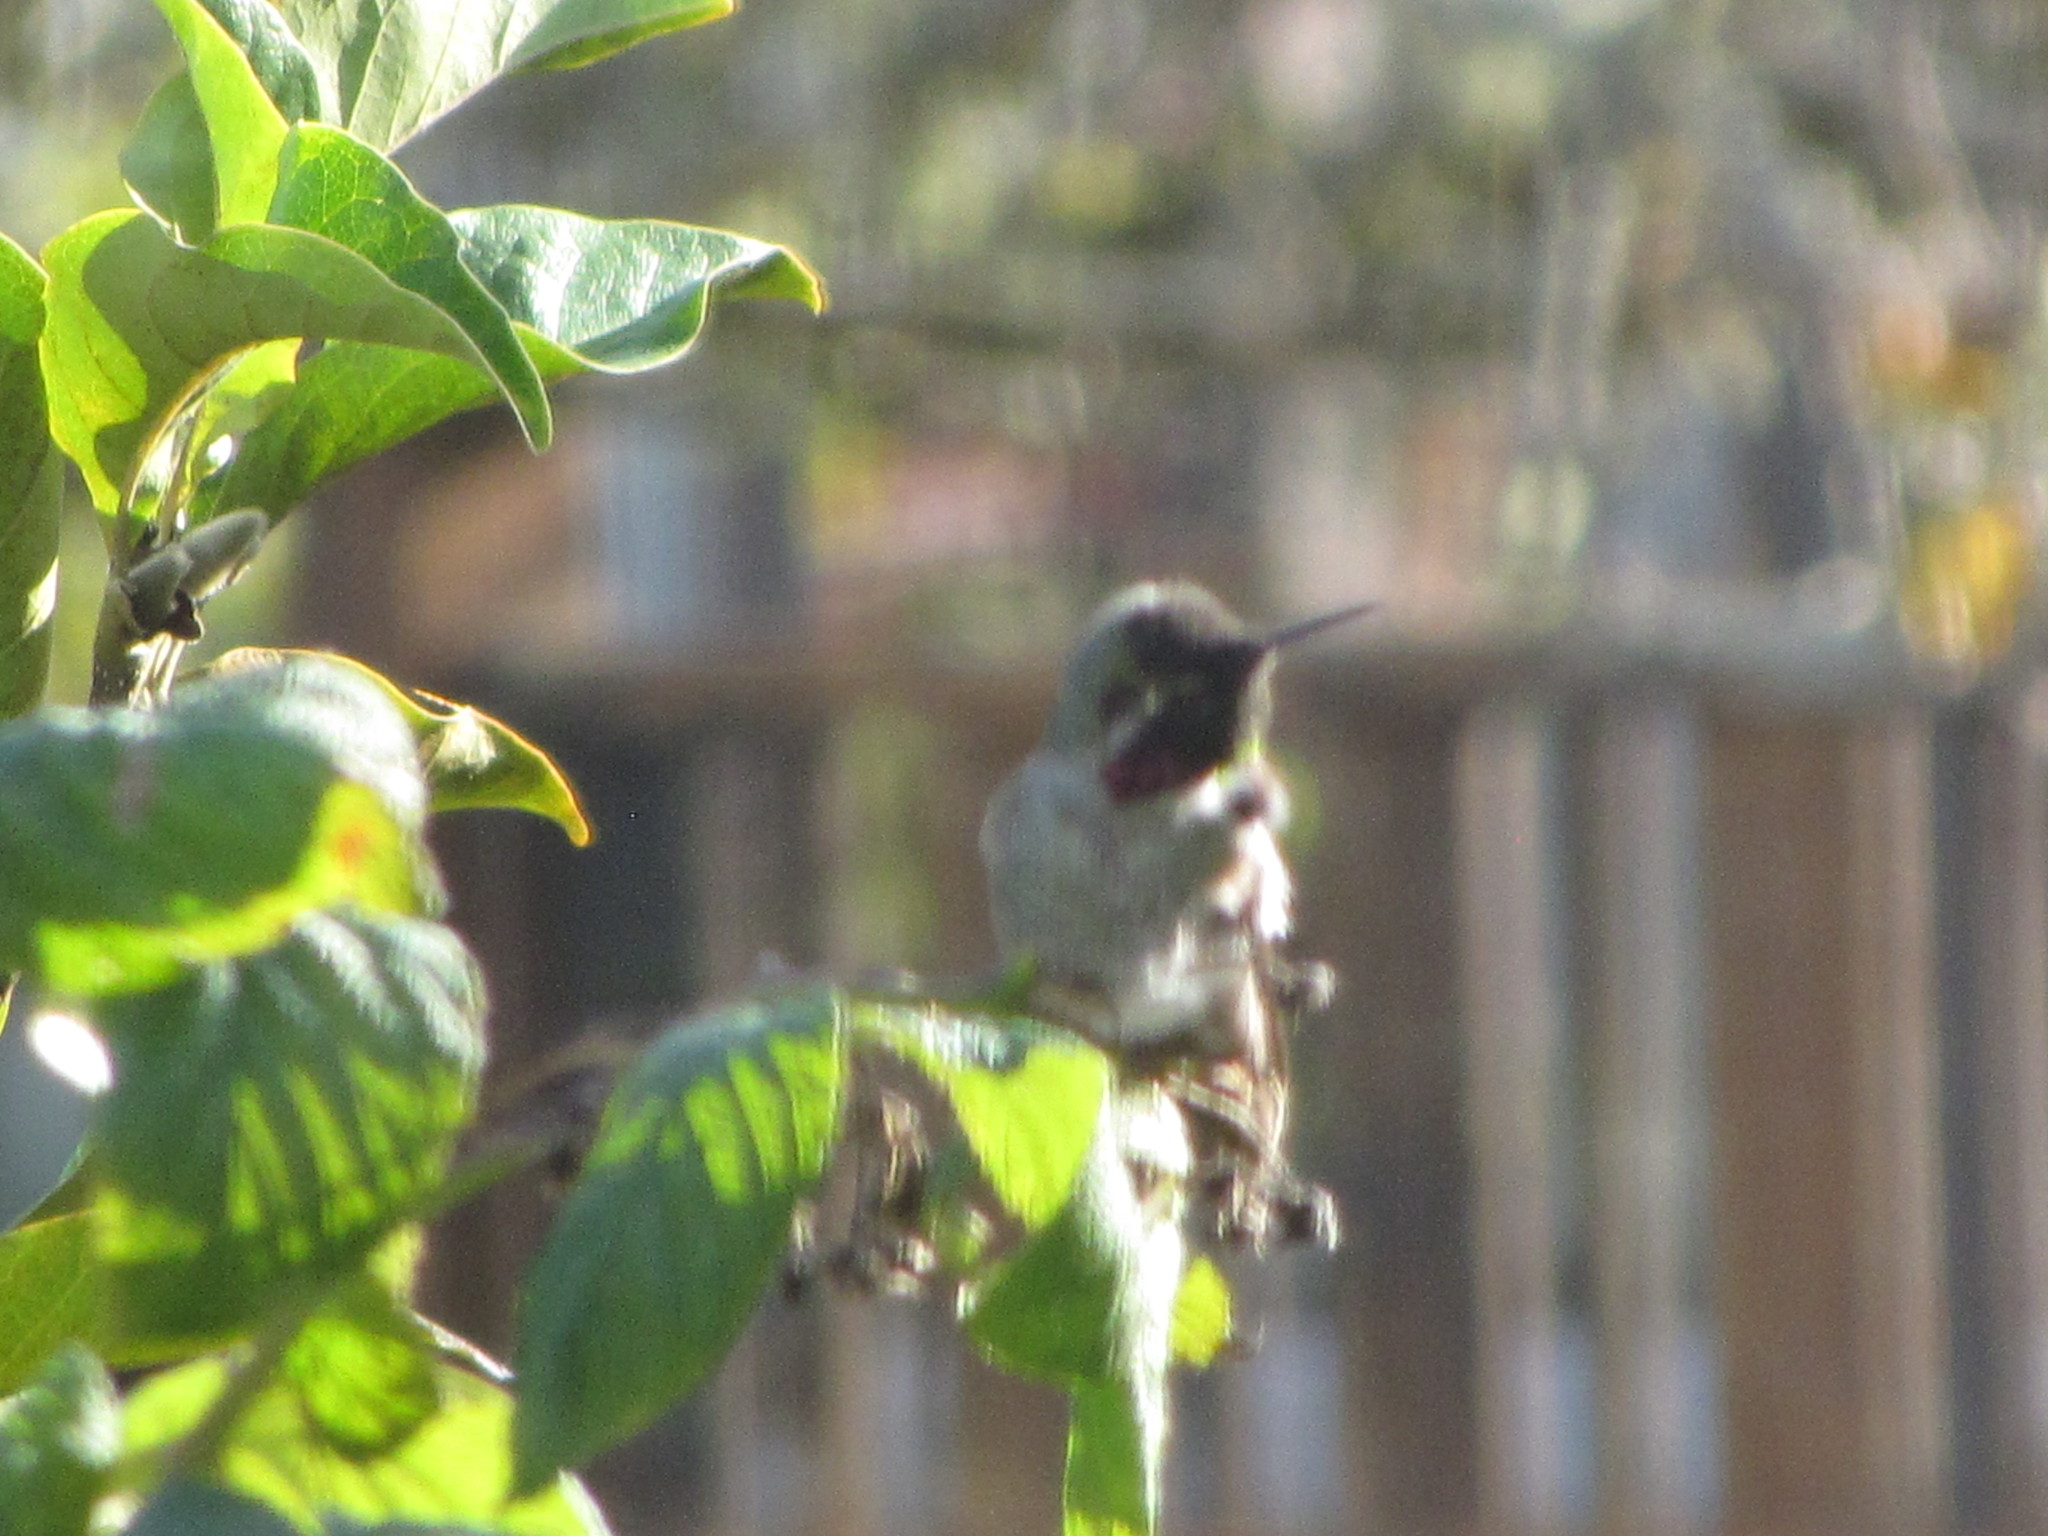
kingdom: Animalia
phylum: Chordata
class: Aves
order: Apodiformes
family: Trochilidae
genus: Calypte
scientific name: Calypte anna
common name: Anna's hummingbird
